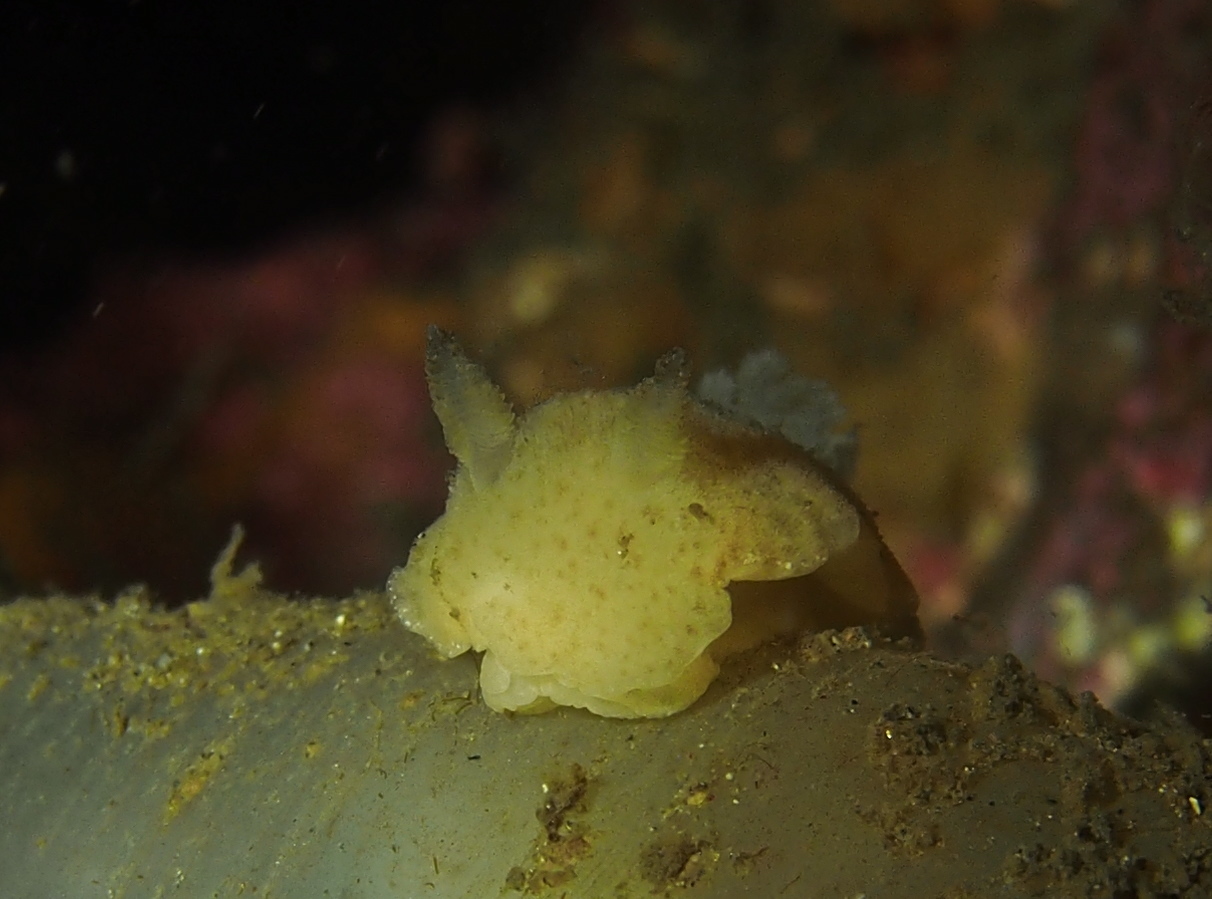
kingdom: Animalia
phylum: Mollusca
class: Gastropoda
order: Nudibranchia
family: Discodorididae
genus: Jorunna
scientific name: Jorunna tomentosa
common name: Grey sea slug
